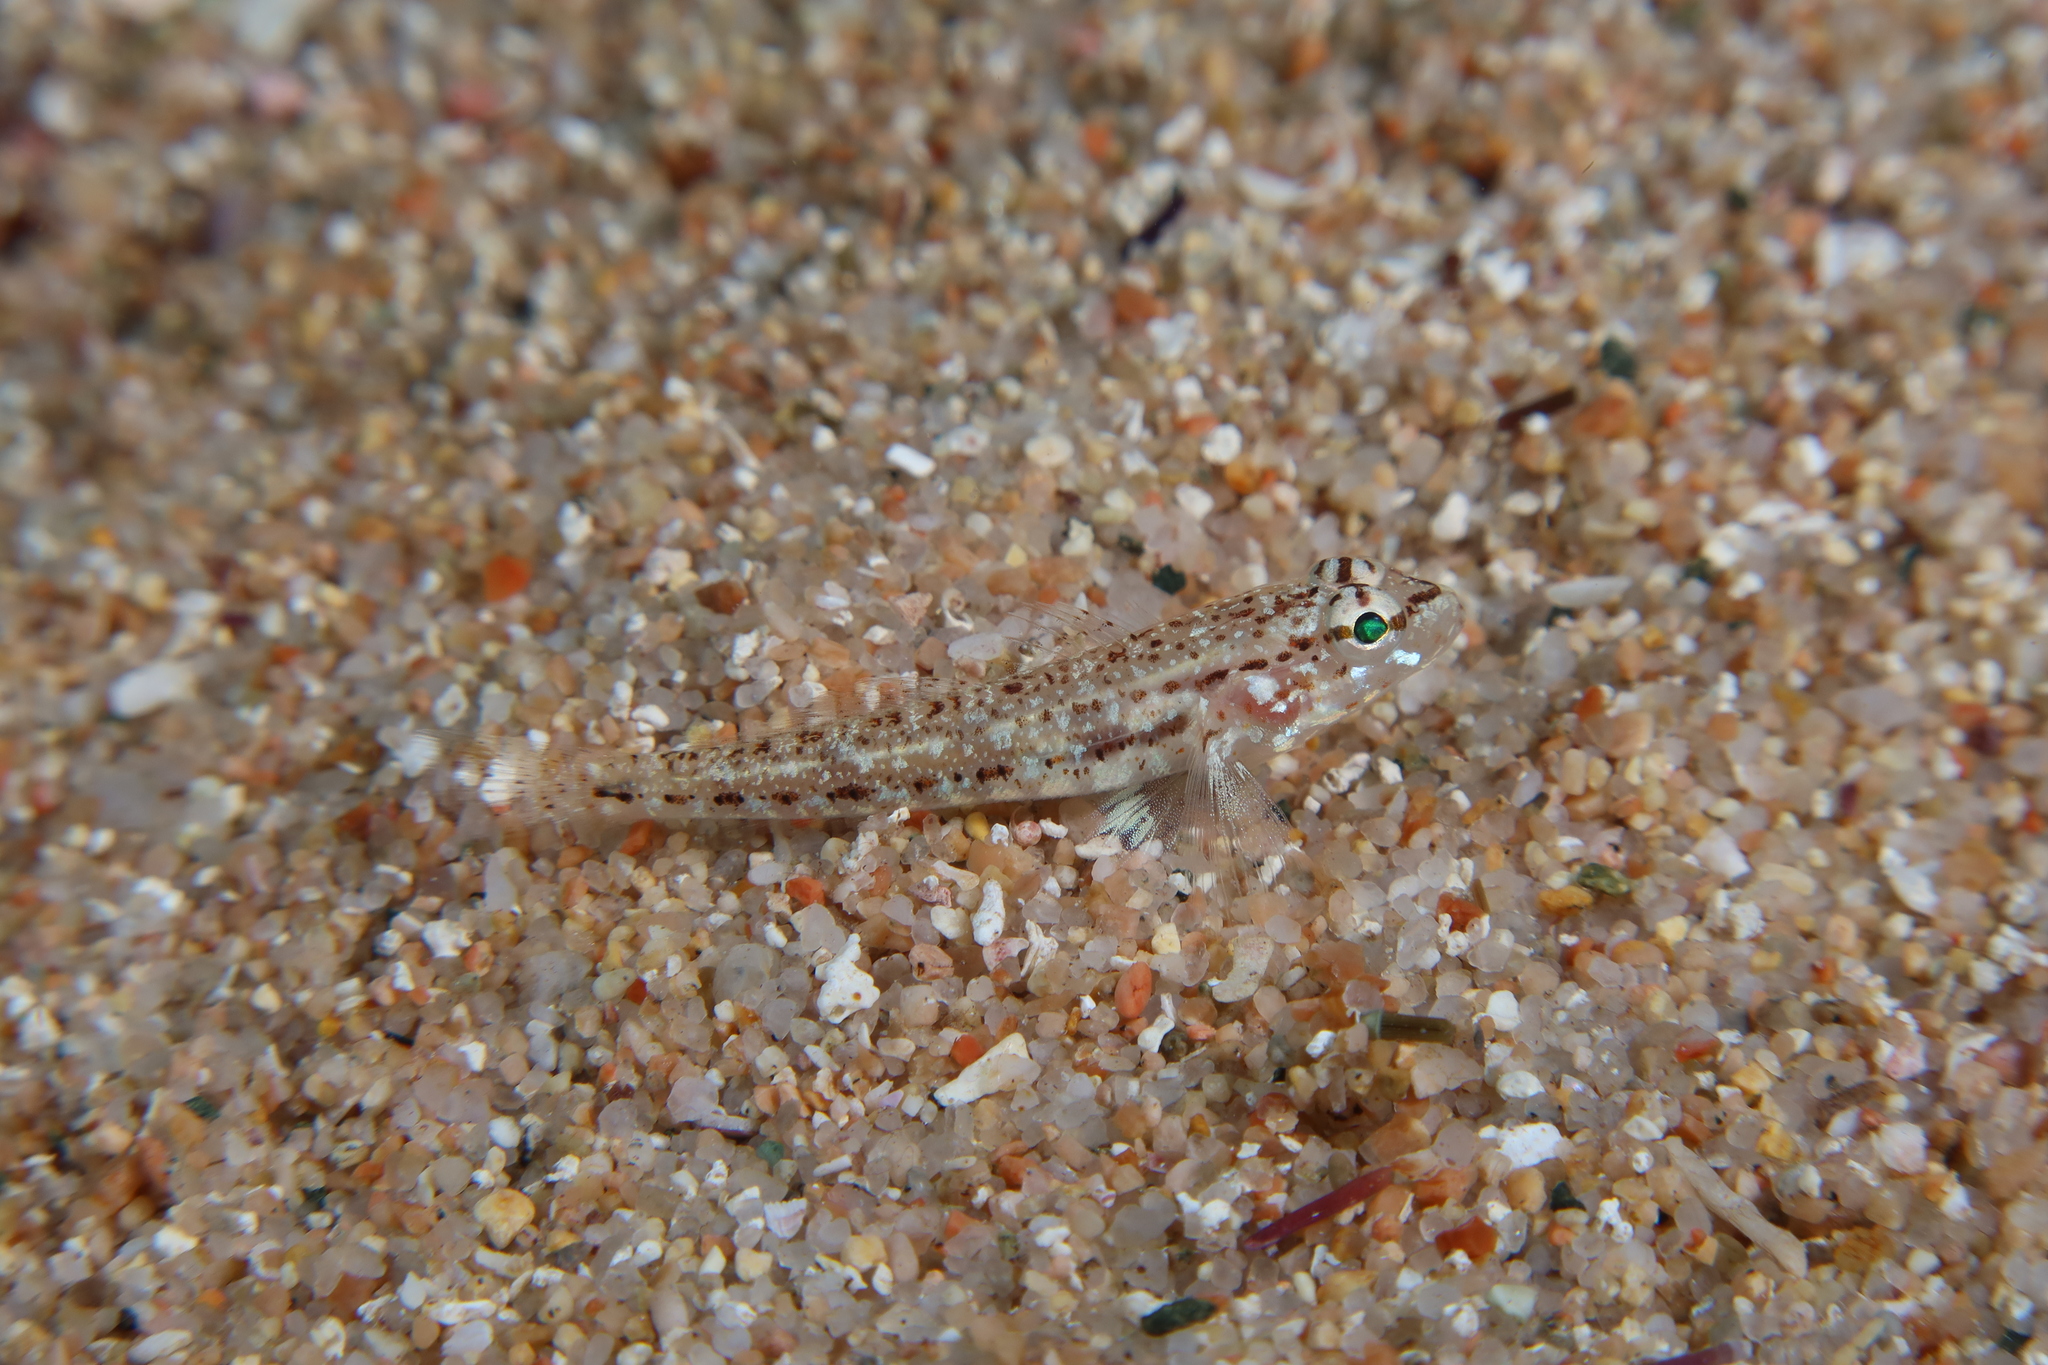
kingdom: Animalia
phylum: Chordata
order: Perciformes
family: Gobiidae
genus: Gobius
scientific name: Gobius geniporus
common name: Slender goby
